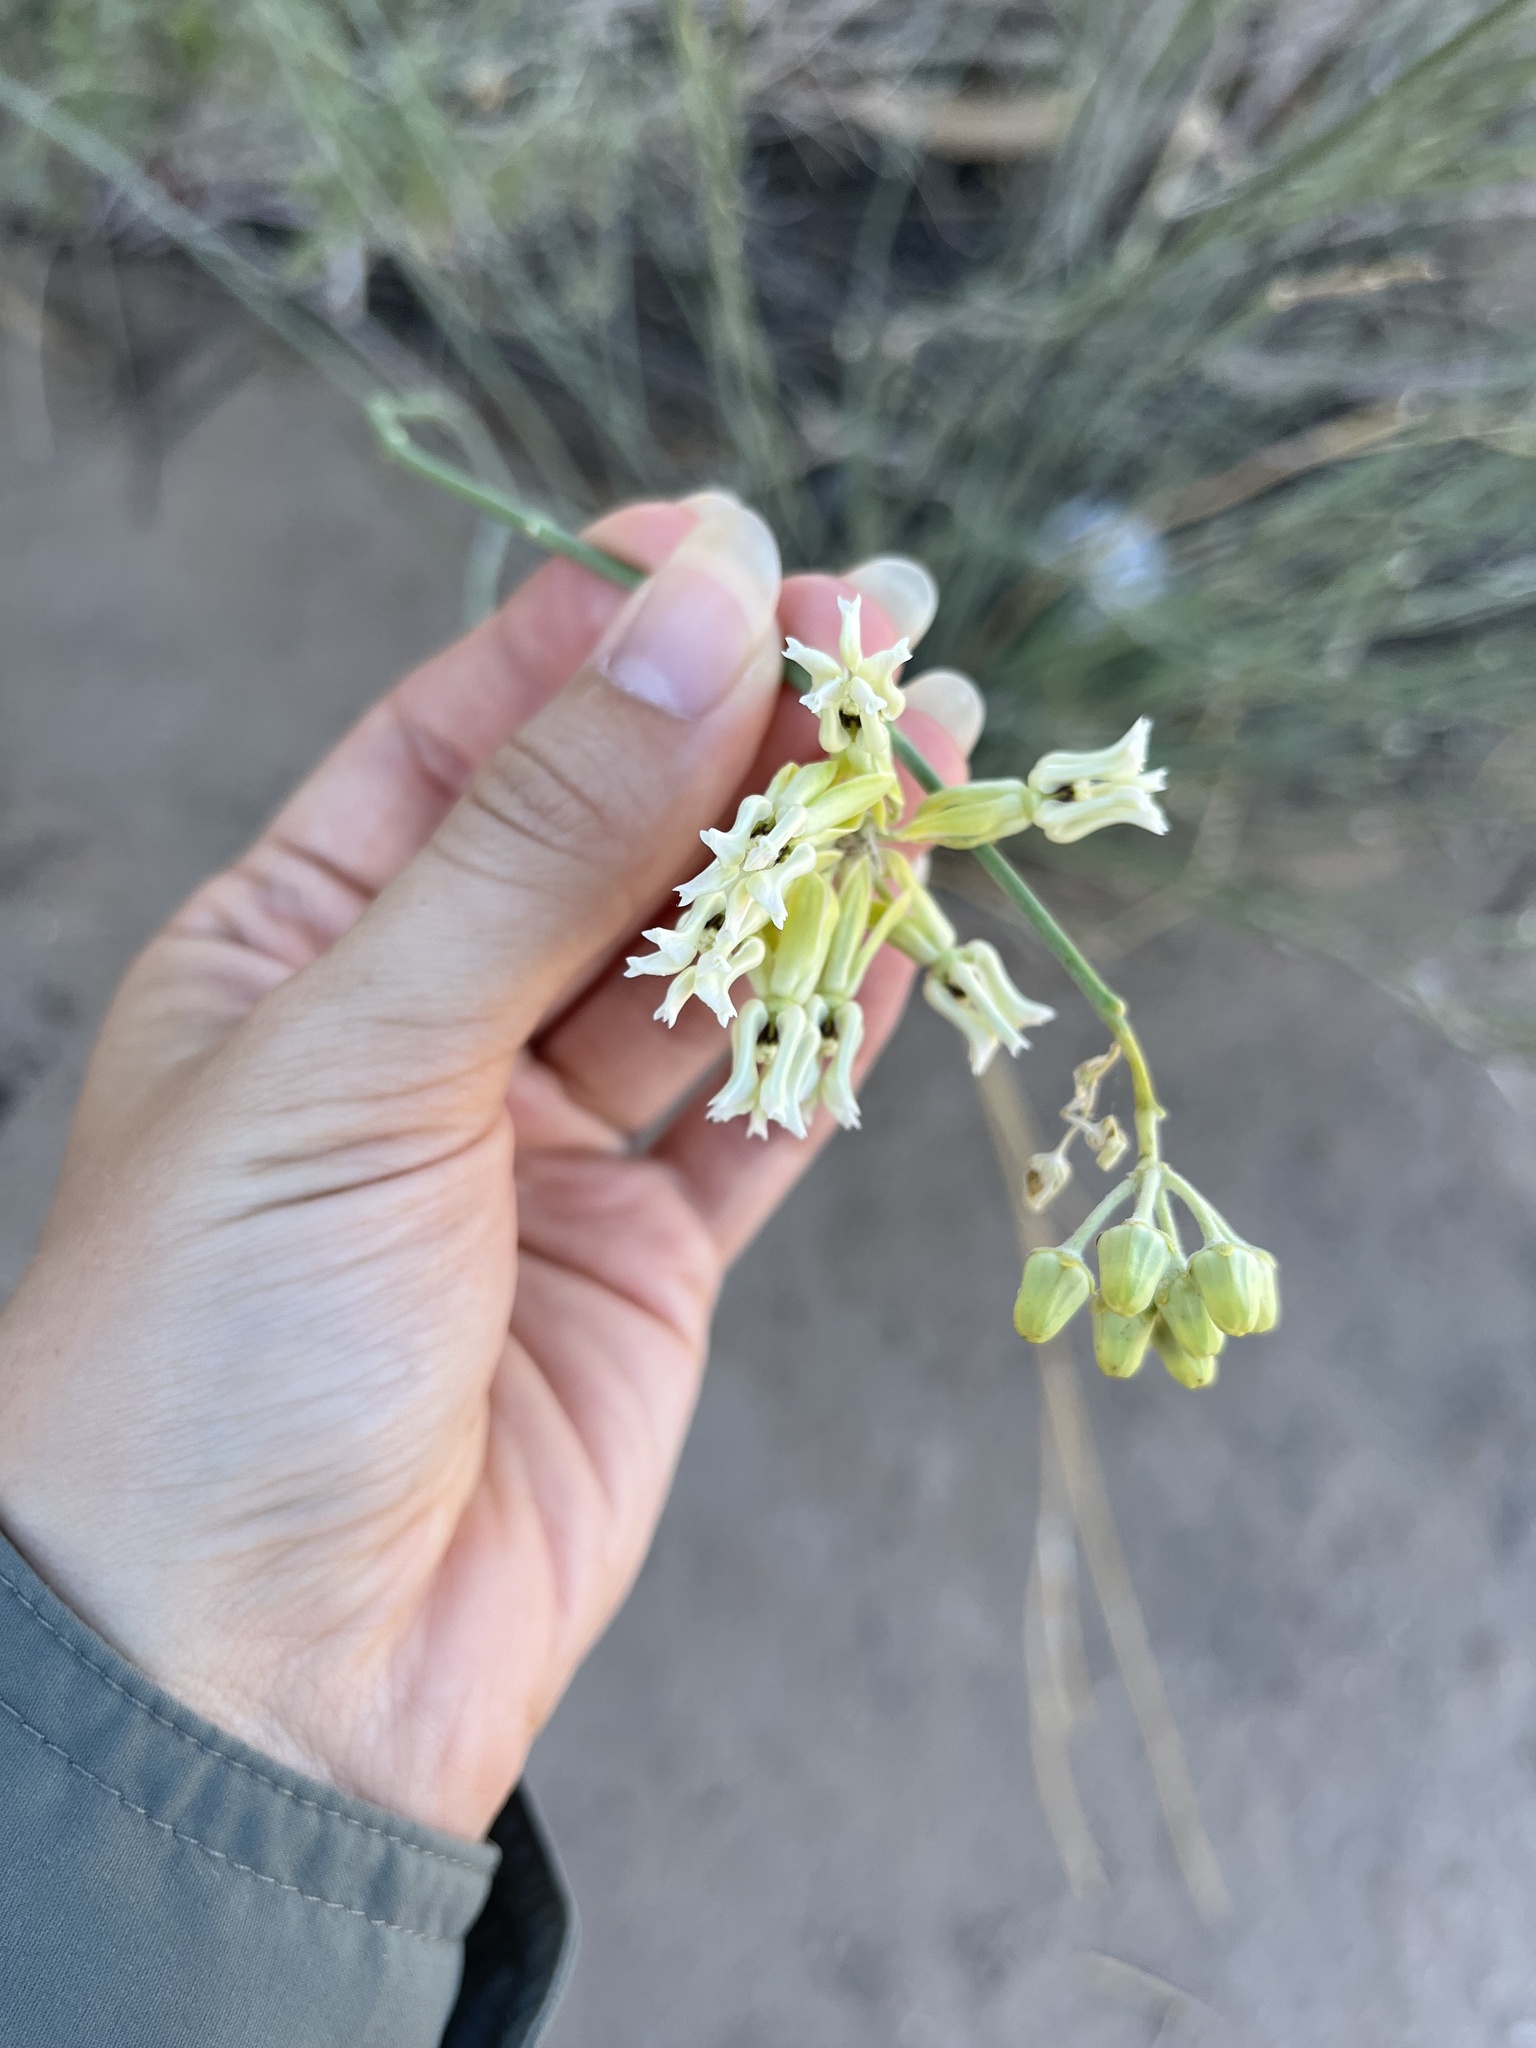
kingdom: Plantae
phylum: Tracheophyta
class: Magnoliopsida
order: Gentianales
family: Apocynaceae
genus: Asclepias
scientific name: Asclepias subulata
